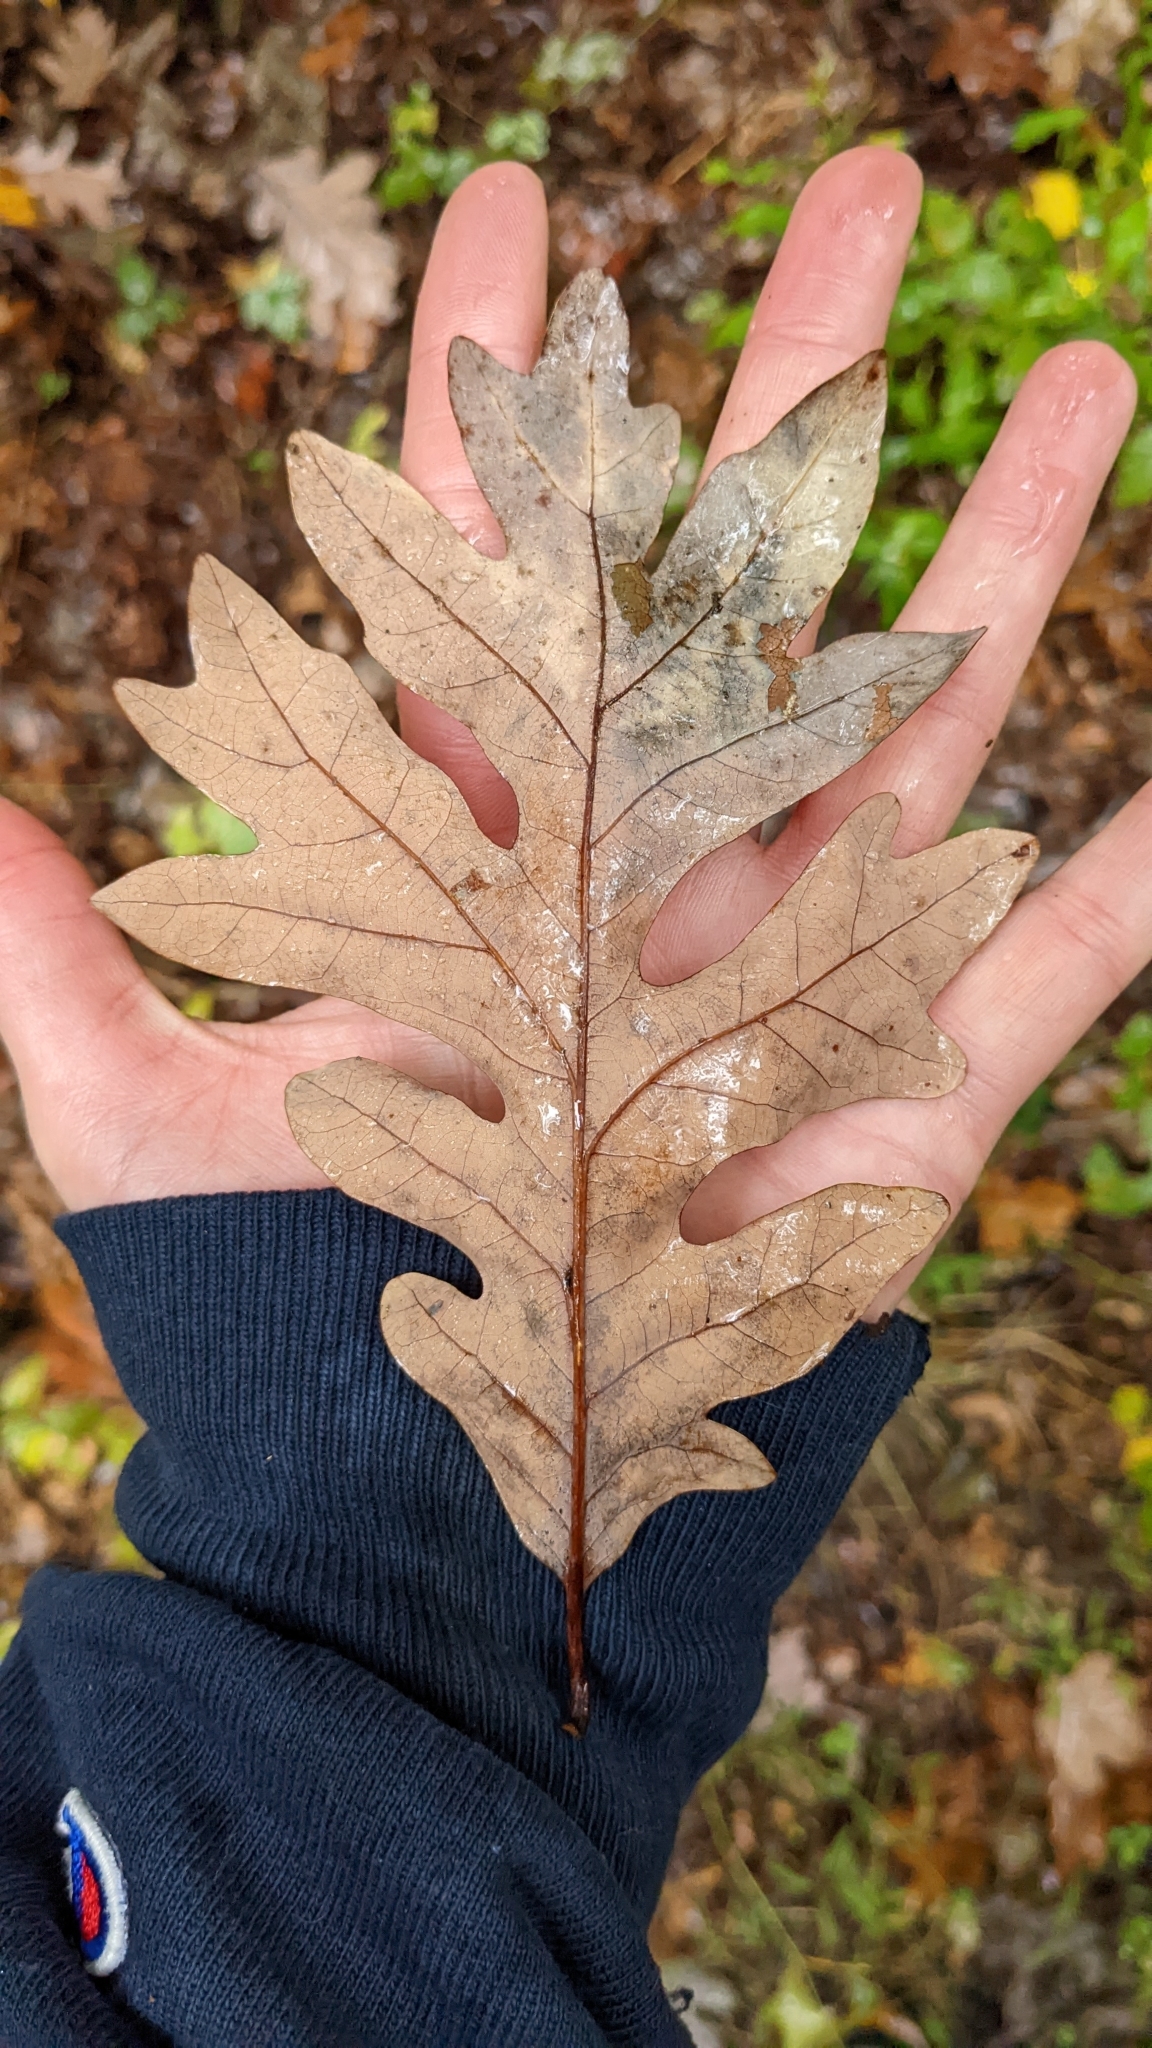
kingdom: Plantae
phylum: Tracheophyta
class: Magnoliopsida
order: Fagales
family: Fagaceae
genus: Quercus
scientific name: Quercus alba
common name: White oak
